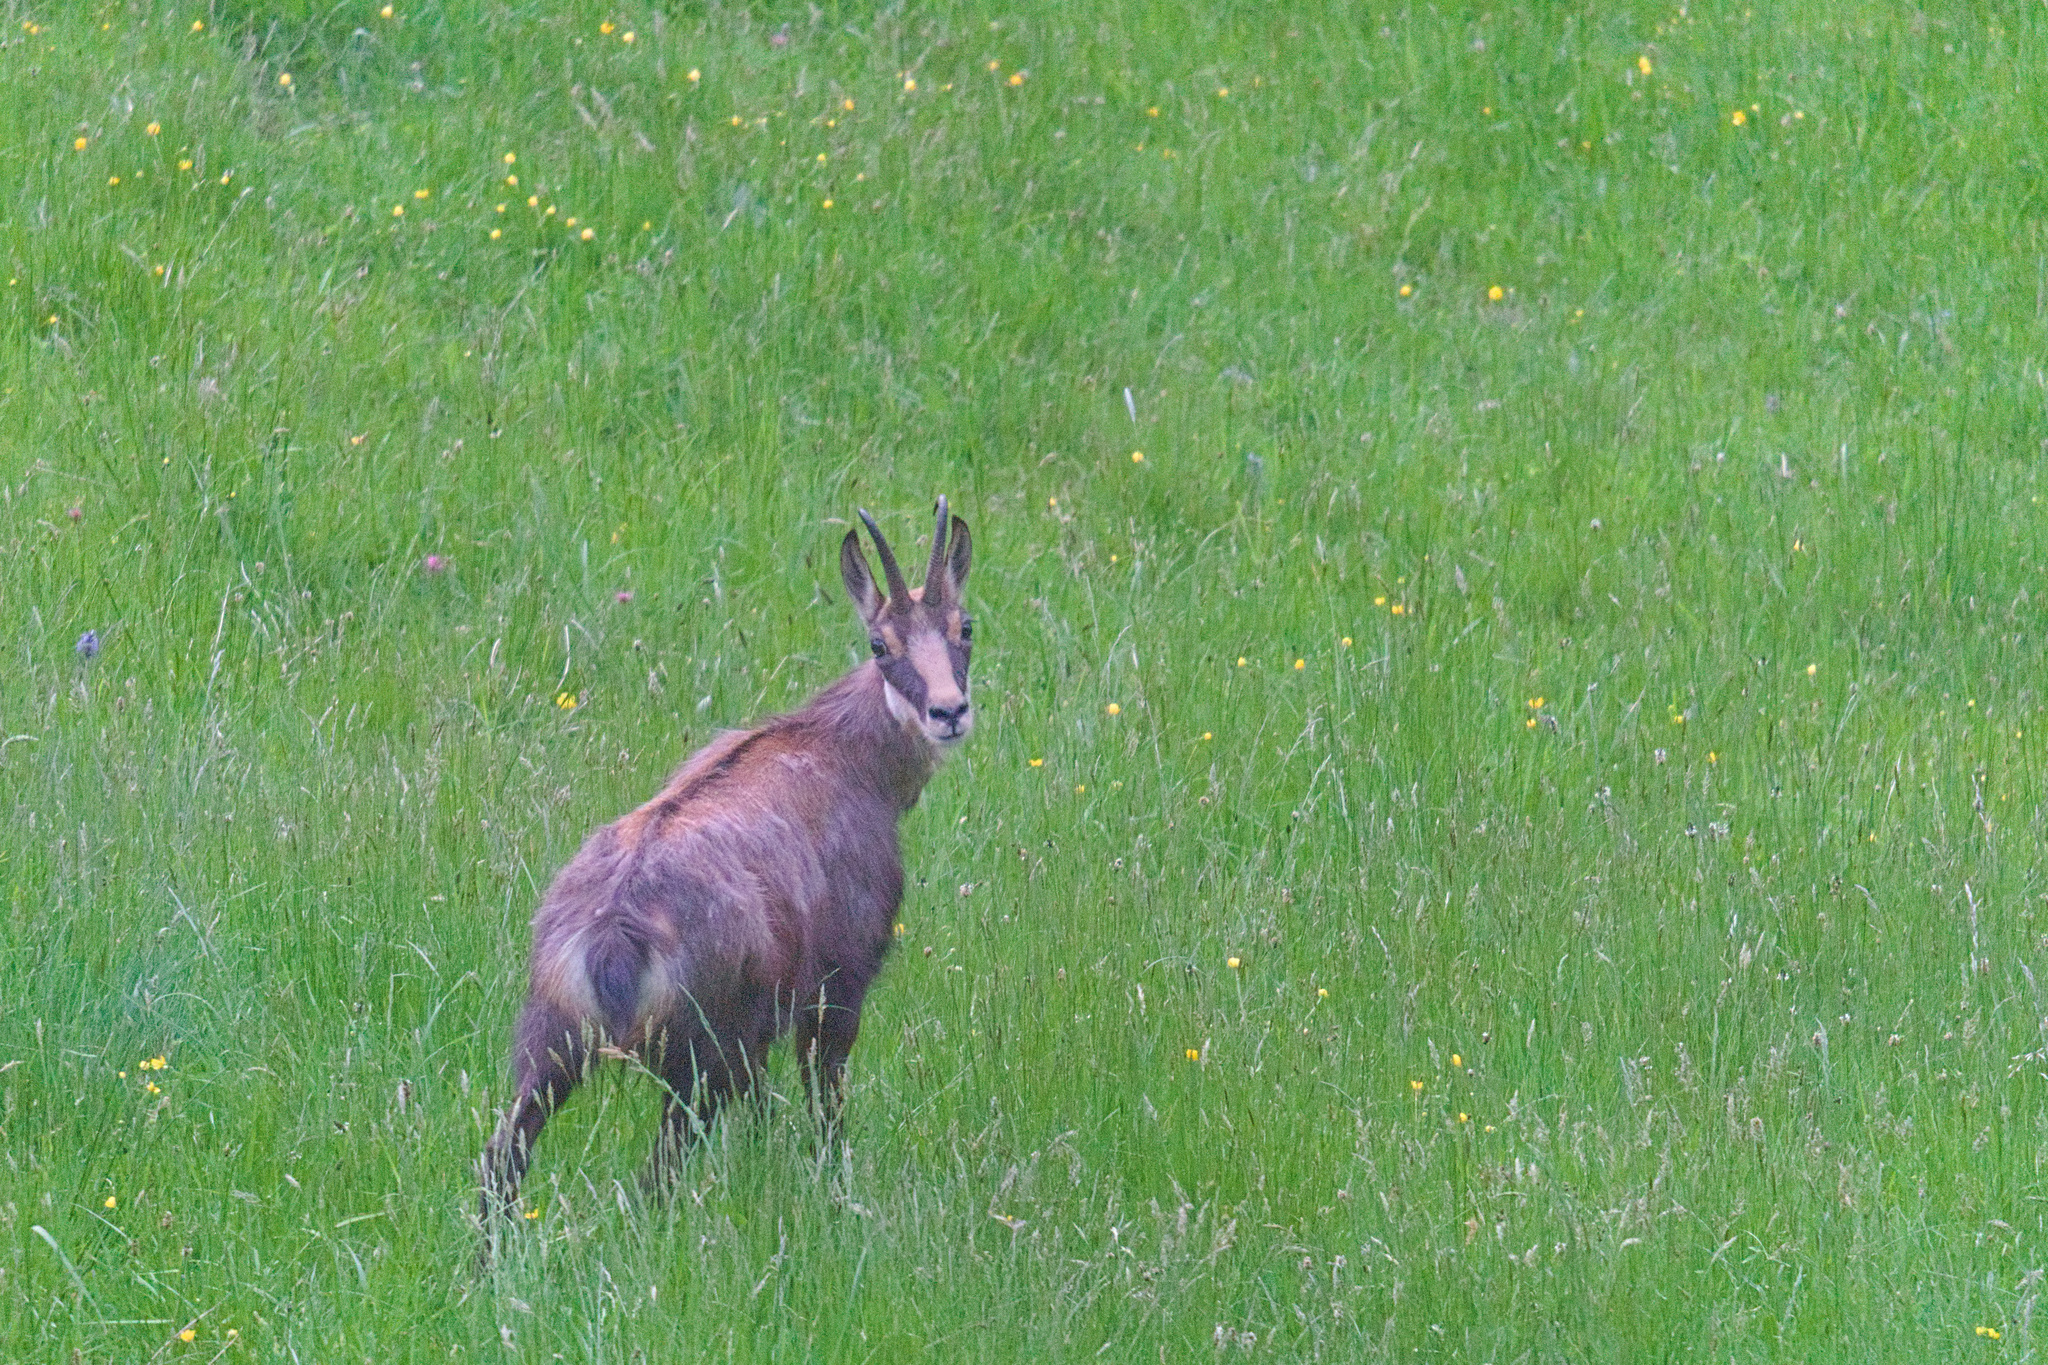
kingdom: Animalia
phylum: Chordata
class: Mammalia
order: Artiodactyla
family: Bovidae
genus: Rupicapra
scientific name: Rupicapra rupicapra
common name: Chamois
